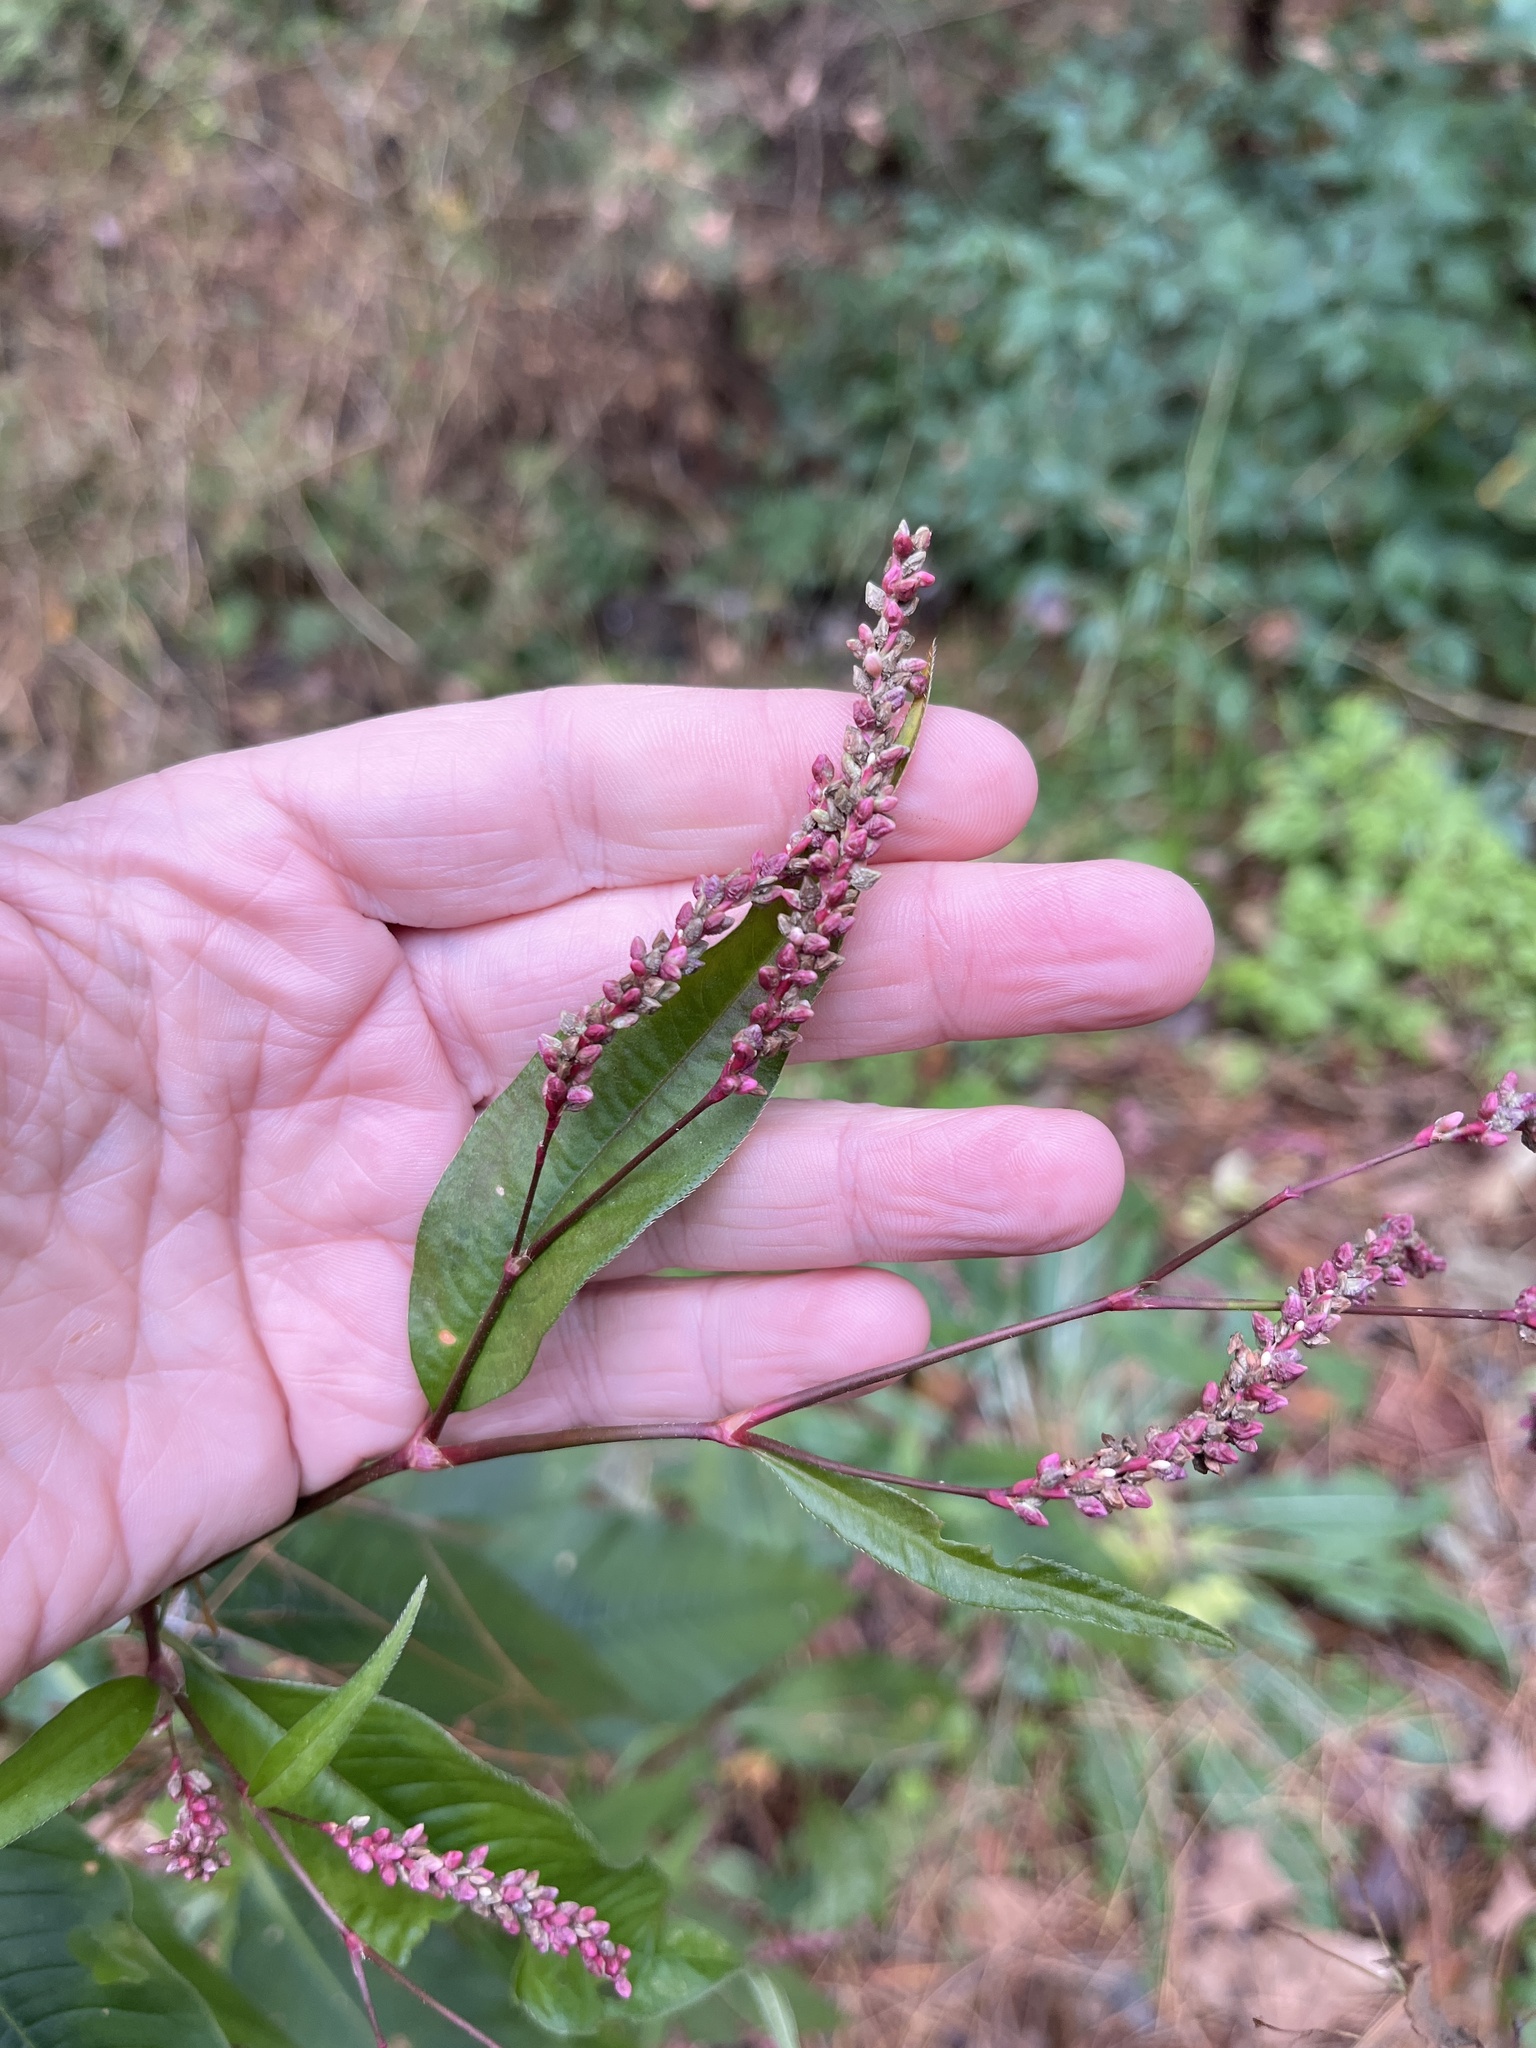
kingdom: Plantae
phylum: Tracheophyta
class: Magnoliopsida
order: Caryophyllales
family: Polygonaceae
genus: Persicaria
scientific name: Persicaria extremiorientalis
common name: Far-eastern smartweed
